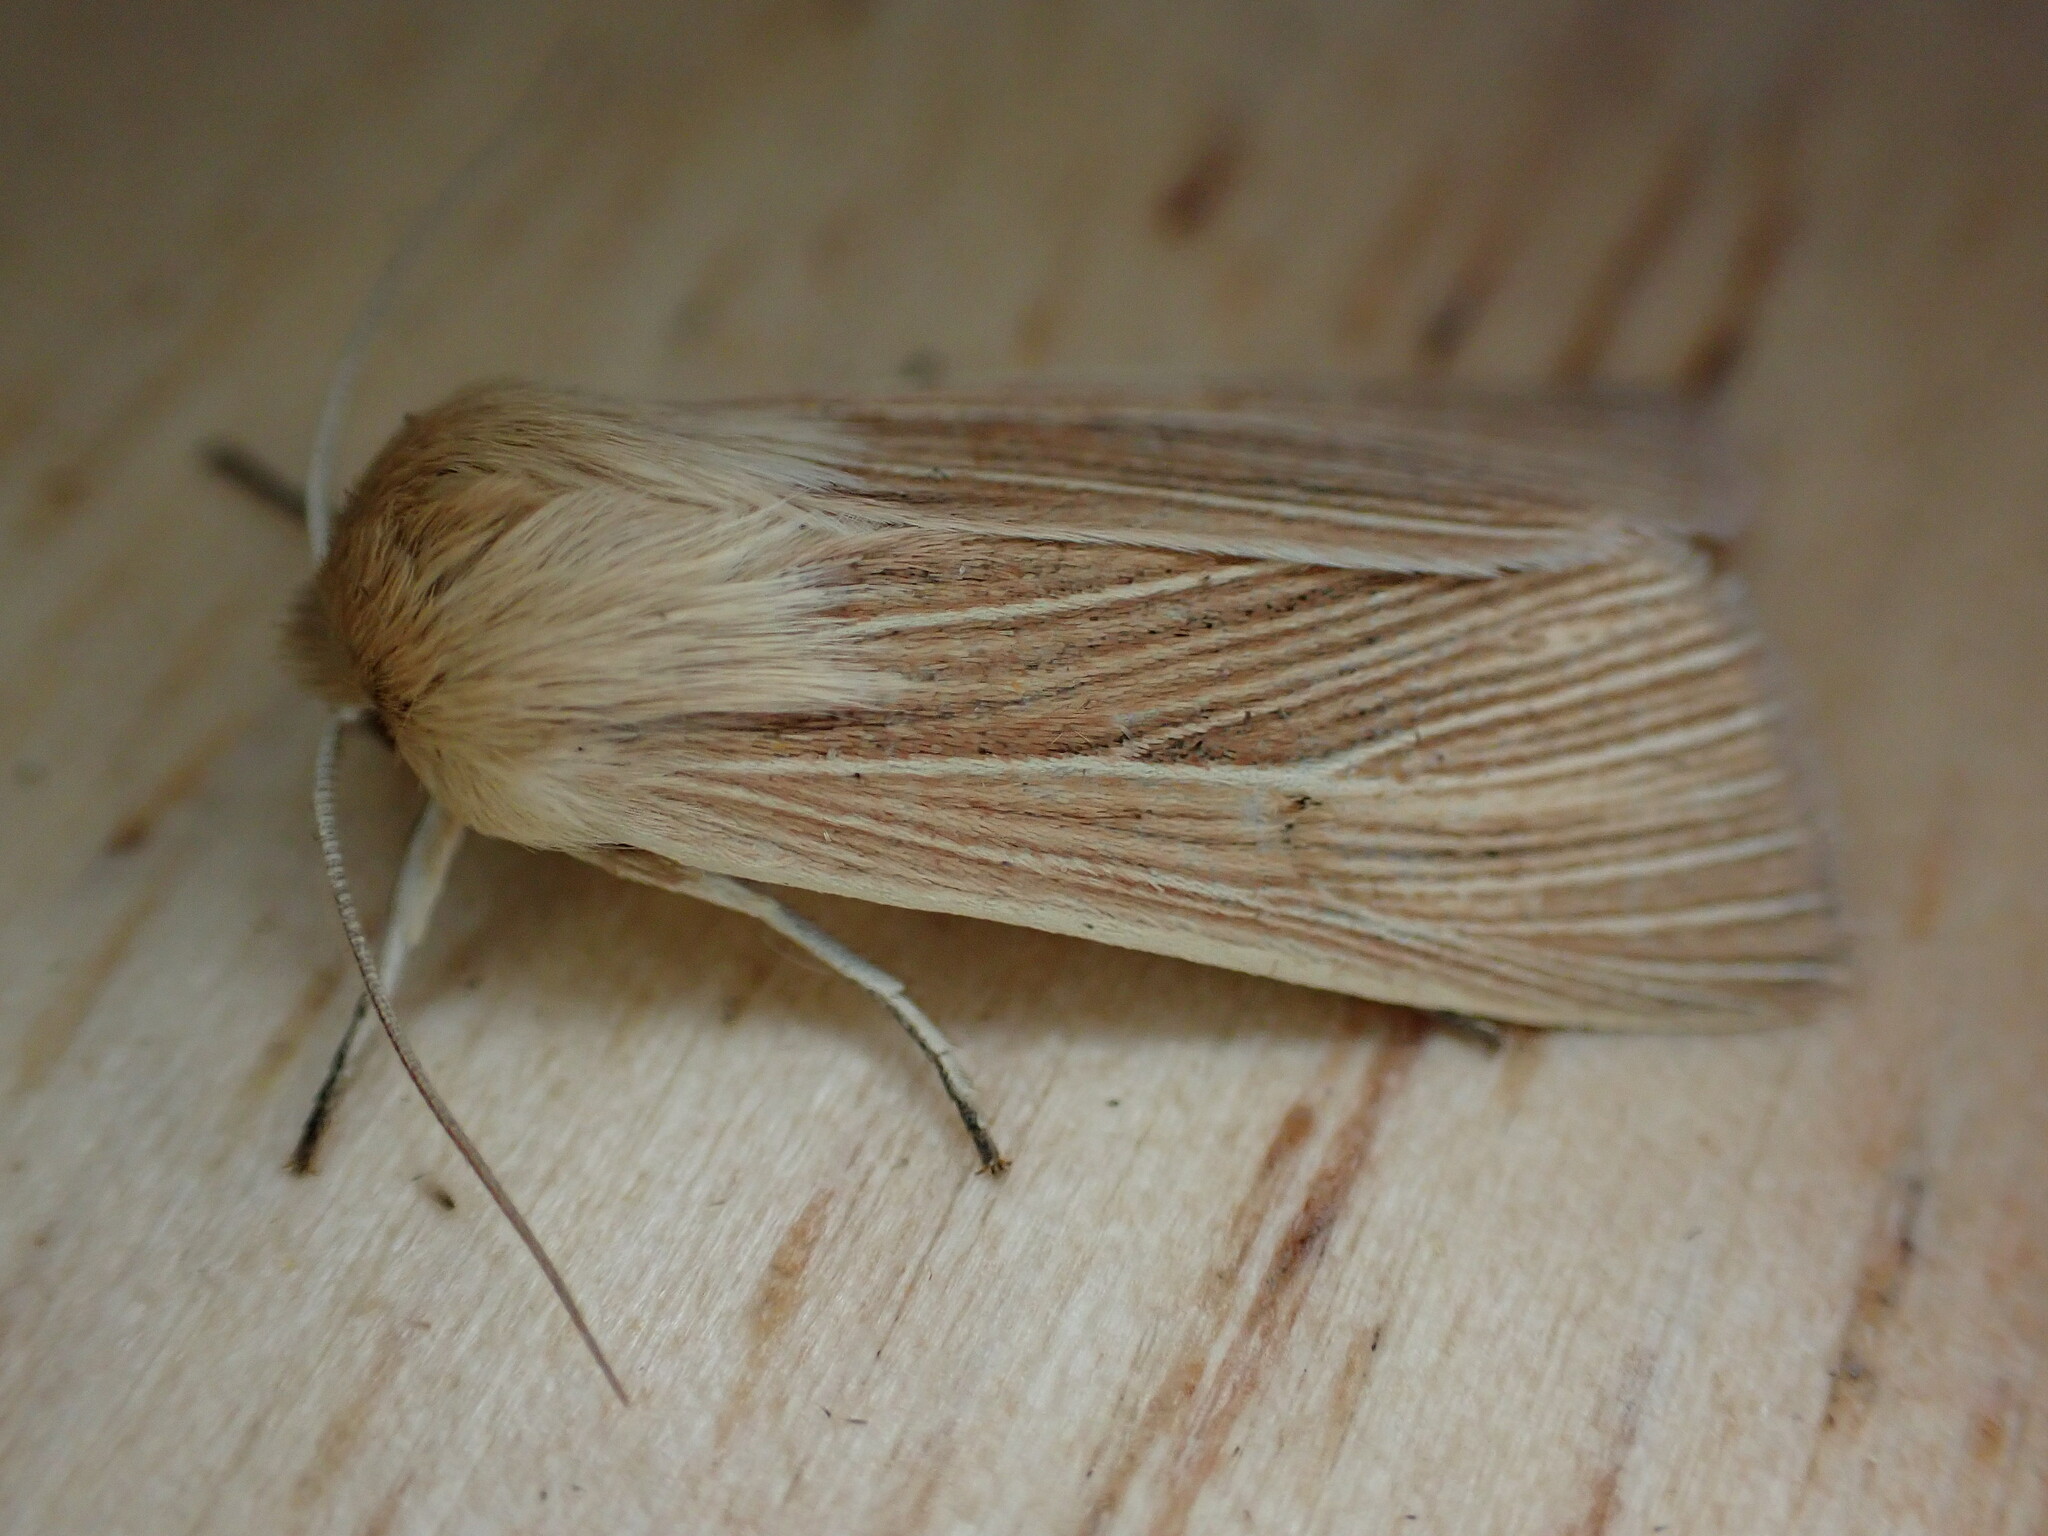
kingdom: Animalia
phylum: Arthropoda
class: Insecta
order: Lepidoptera
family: Noctuidae
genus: Mythimna
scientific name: Mythimna pallens
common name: Common wainscot
